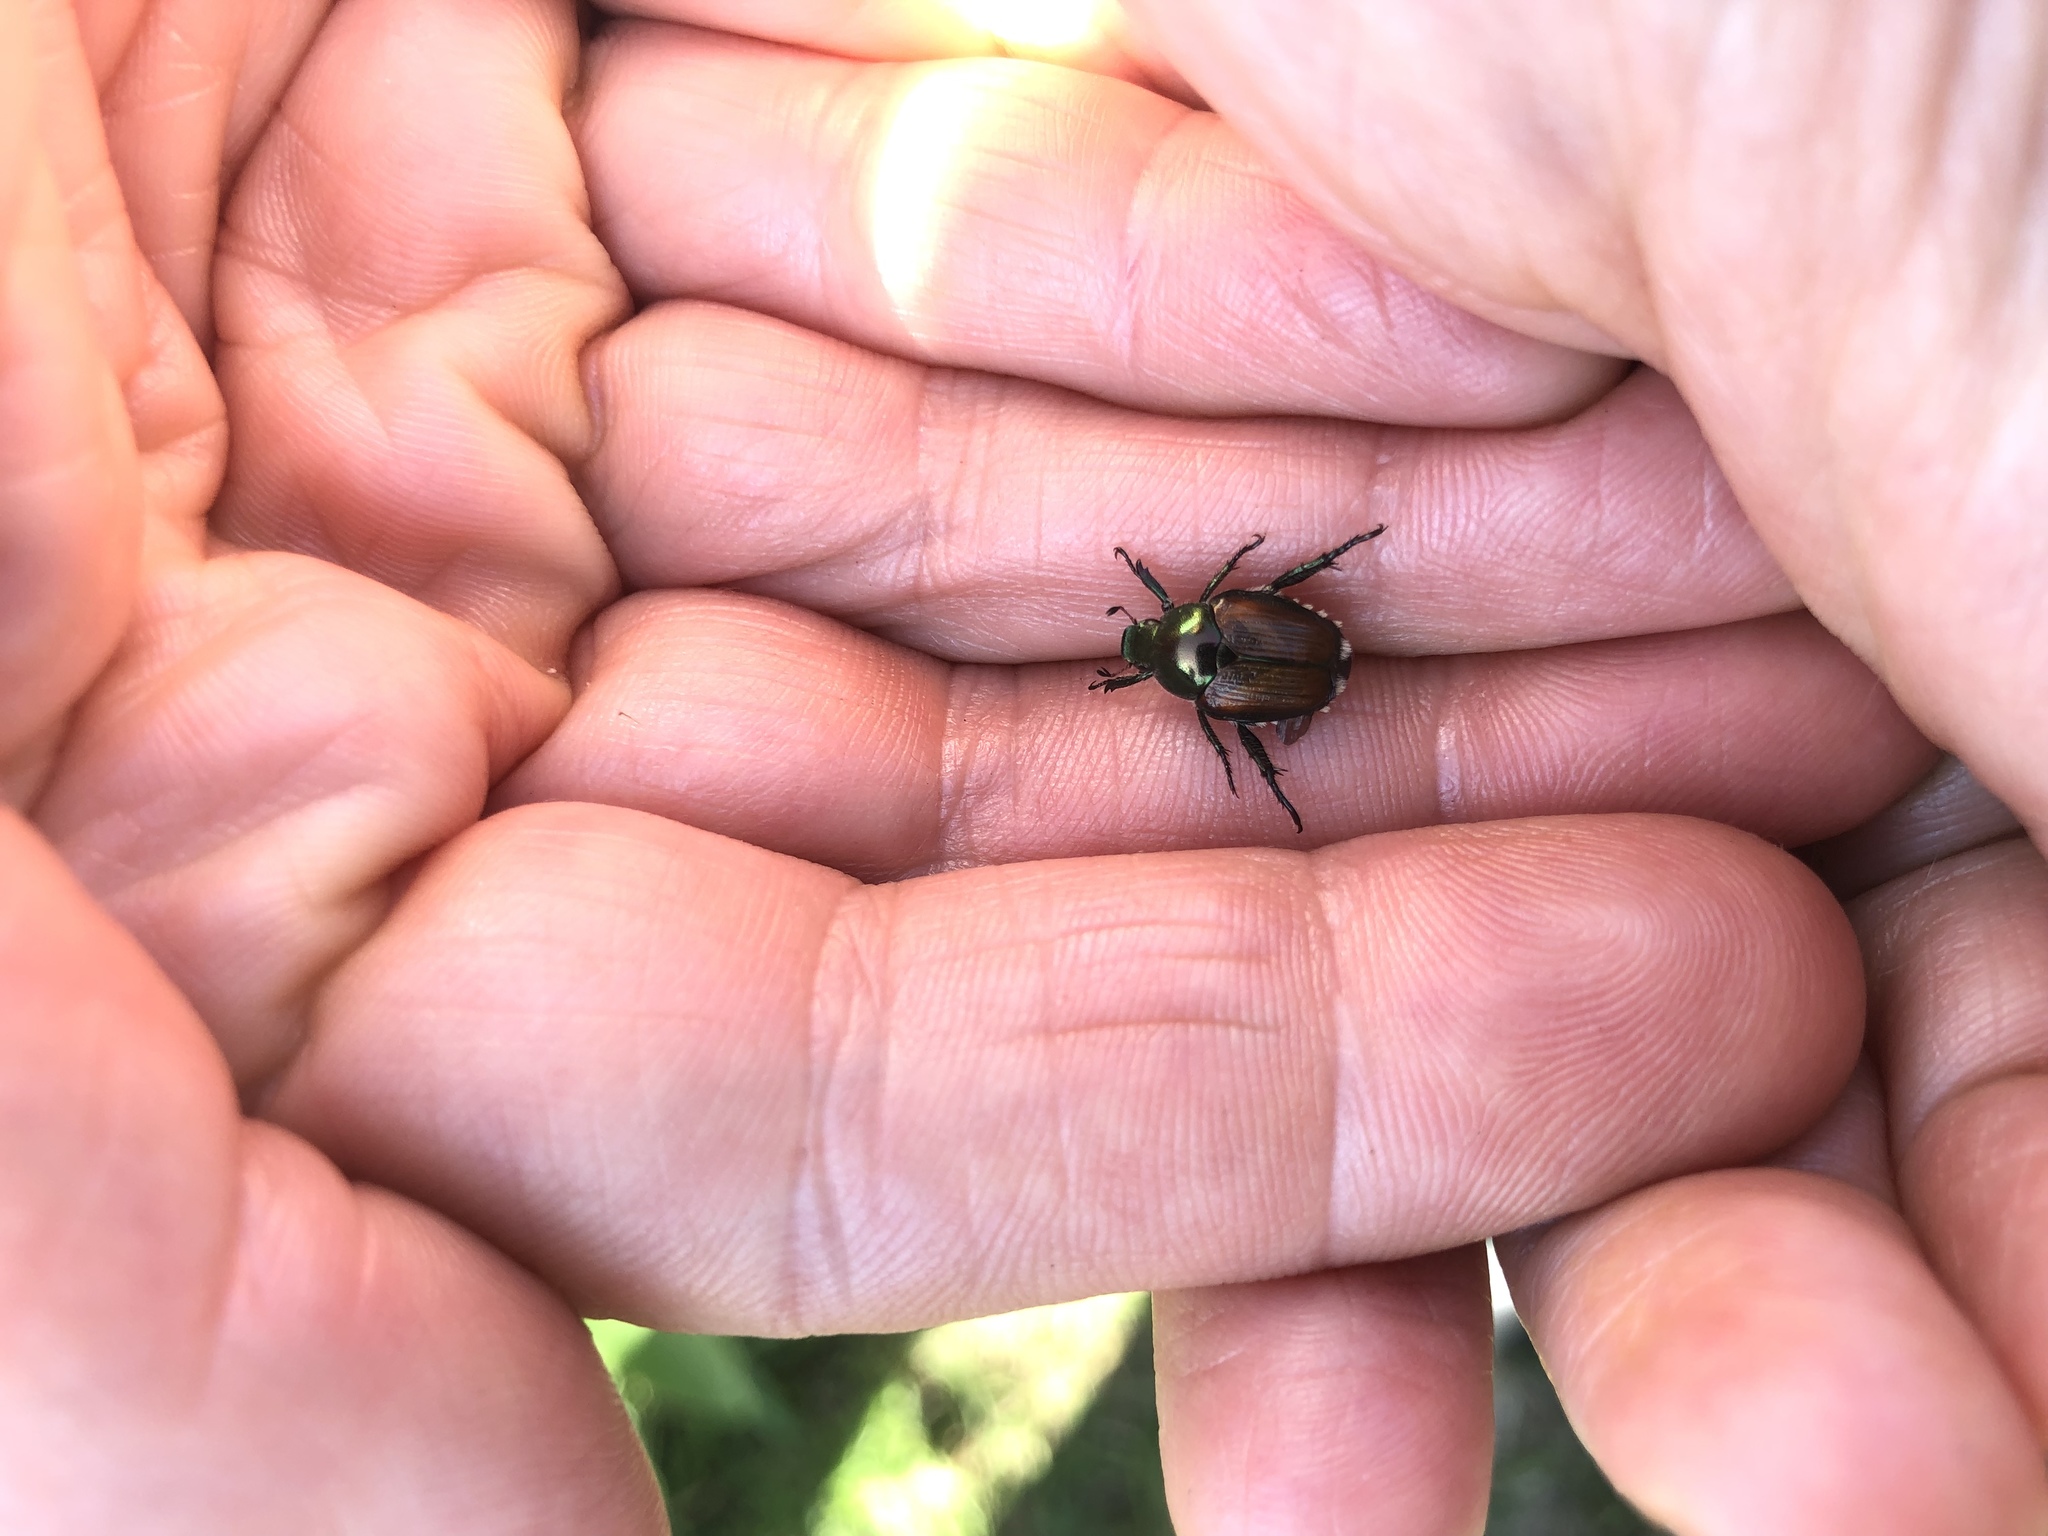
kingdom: Animalia
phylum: Arthropoda
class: Insecta
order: Coleoptera
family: Scarabaeidae
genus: Popillia
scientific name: Popillia japonica
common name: Japanese beetle
